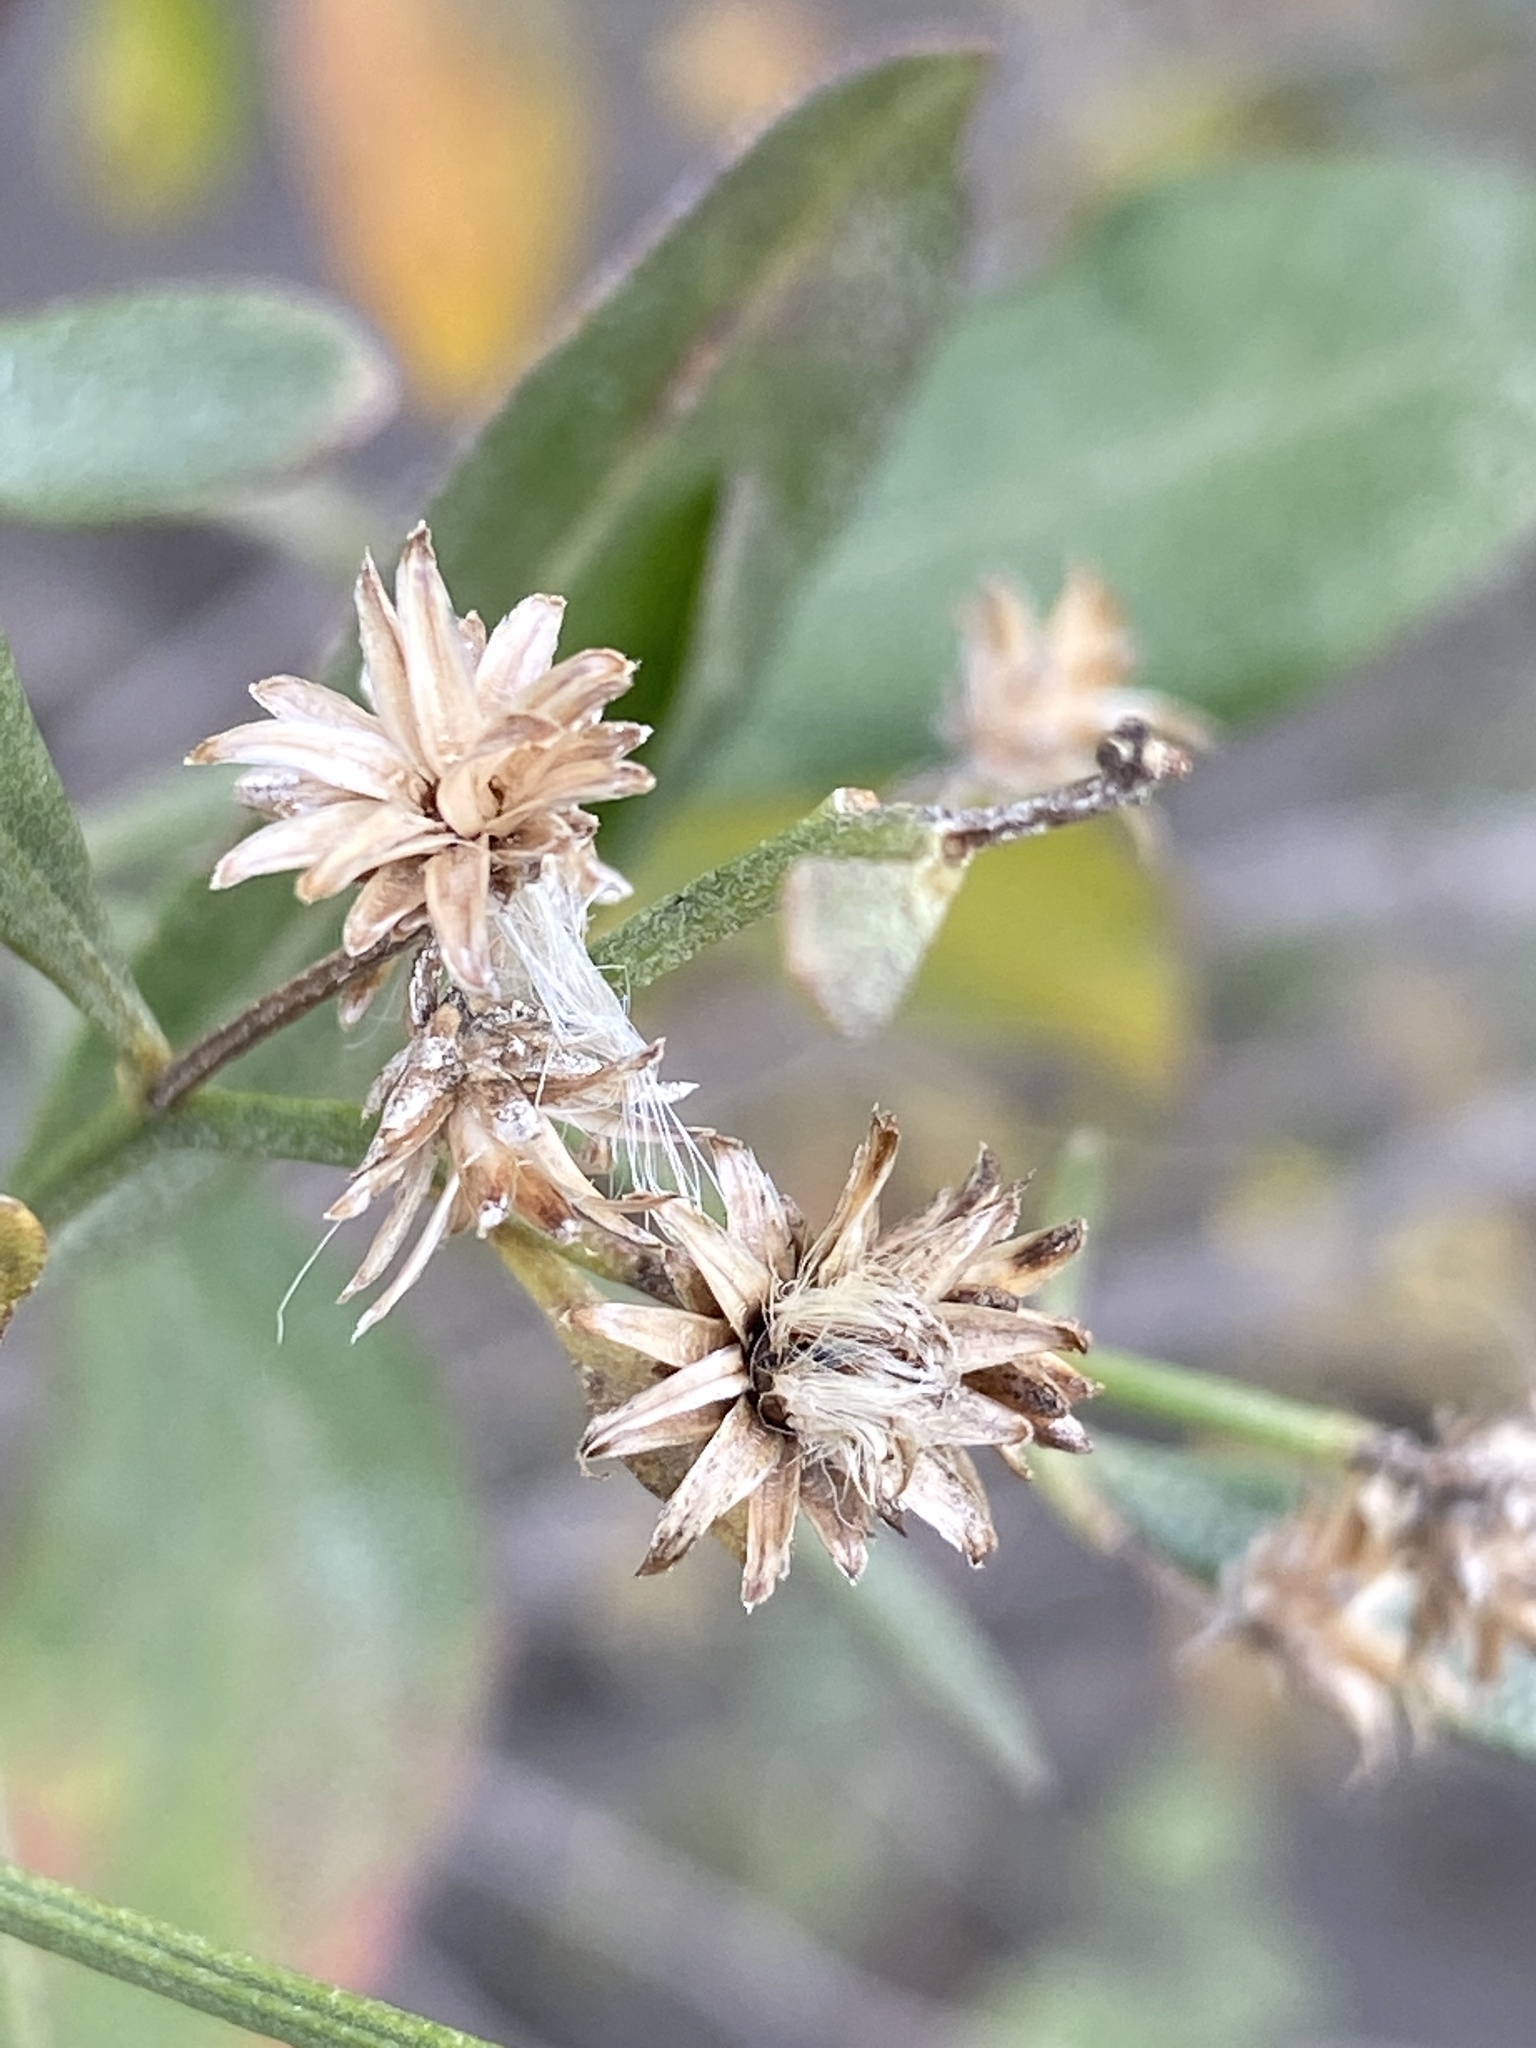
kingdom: Plantae
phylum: Tracheophyta
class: Magnoliopsida
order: Asterales
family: Asteraceae
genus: Baccharis
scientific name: Baccharis halimifolia
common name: Eastern baccharis
